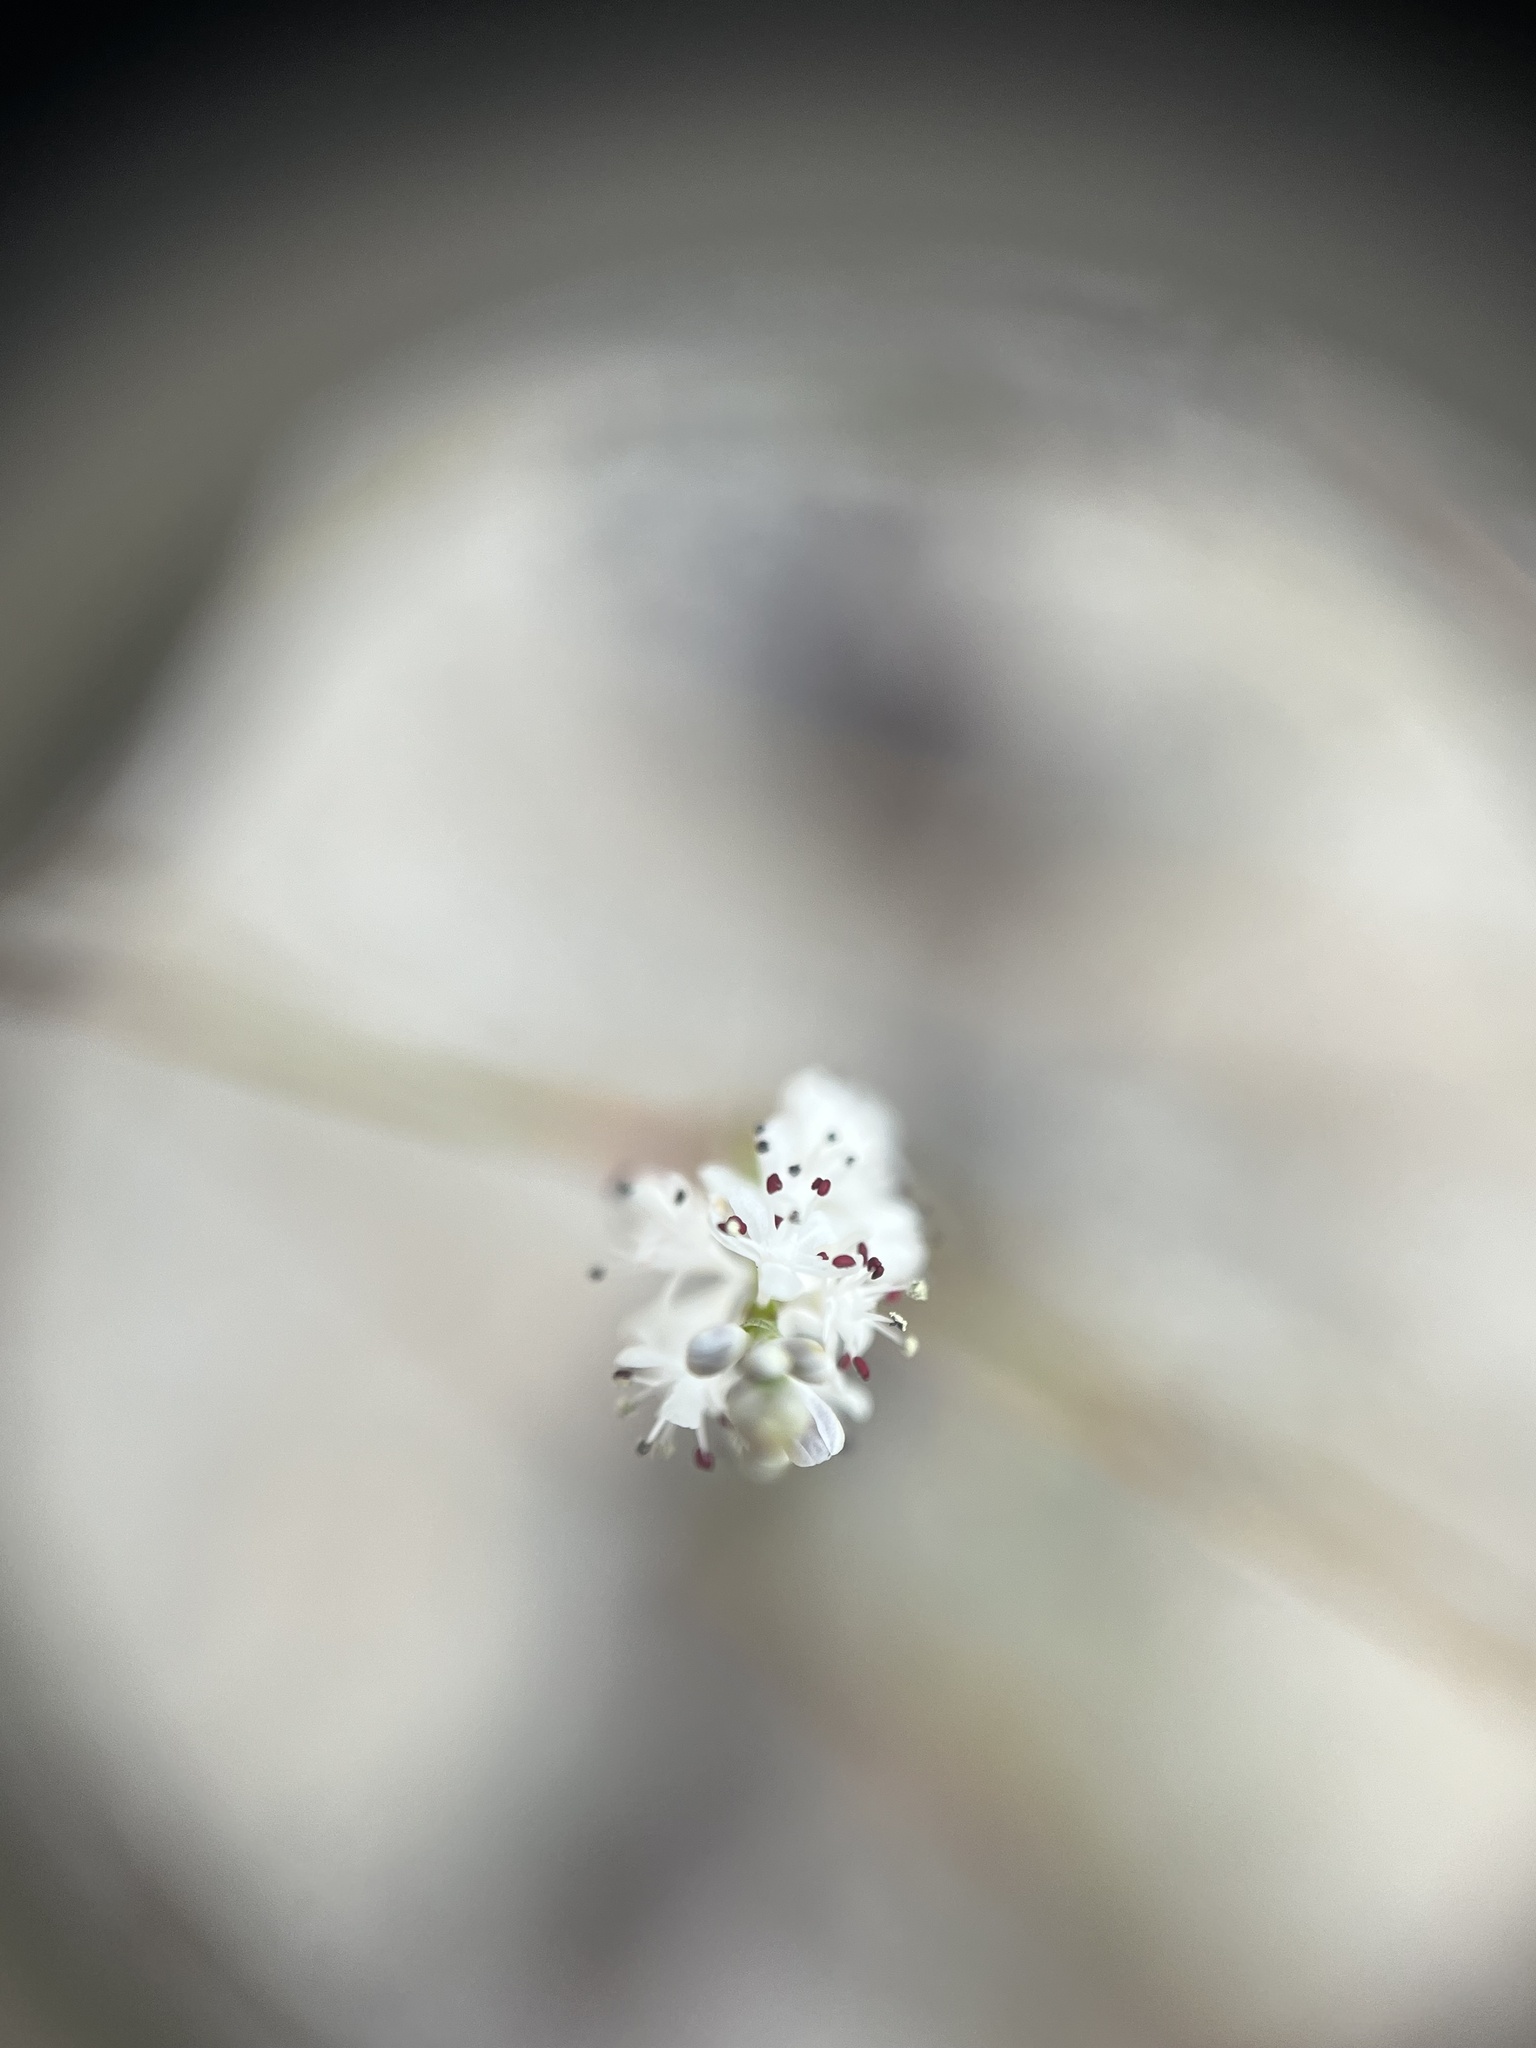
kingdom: Plantae
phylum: Tracheophyta
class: Magnoliopsida
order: Caryophyllales
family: Polygonaceae
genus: Polygonella
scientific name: Polygonella ciliata
